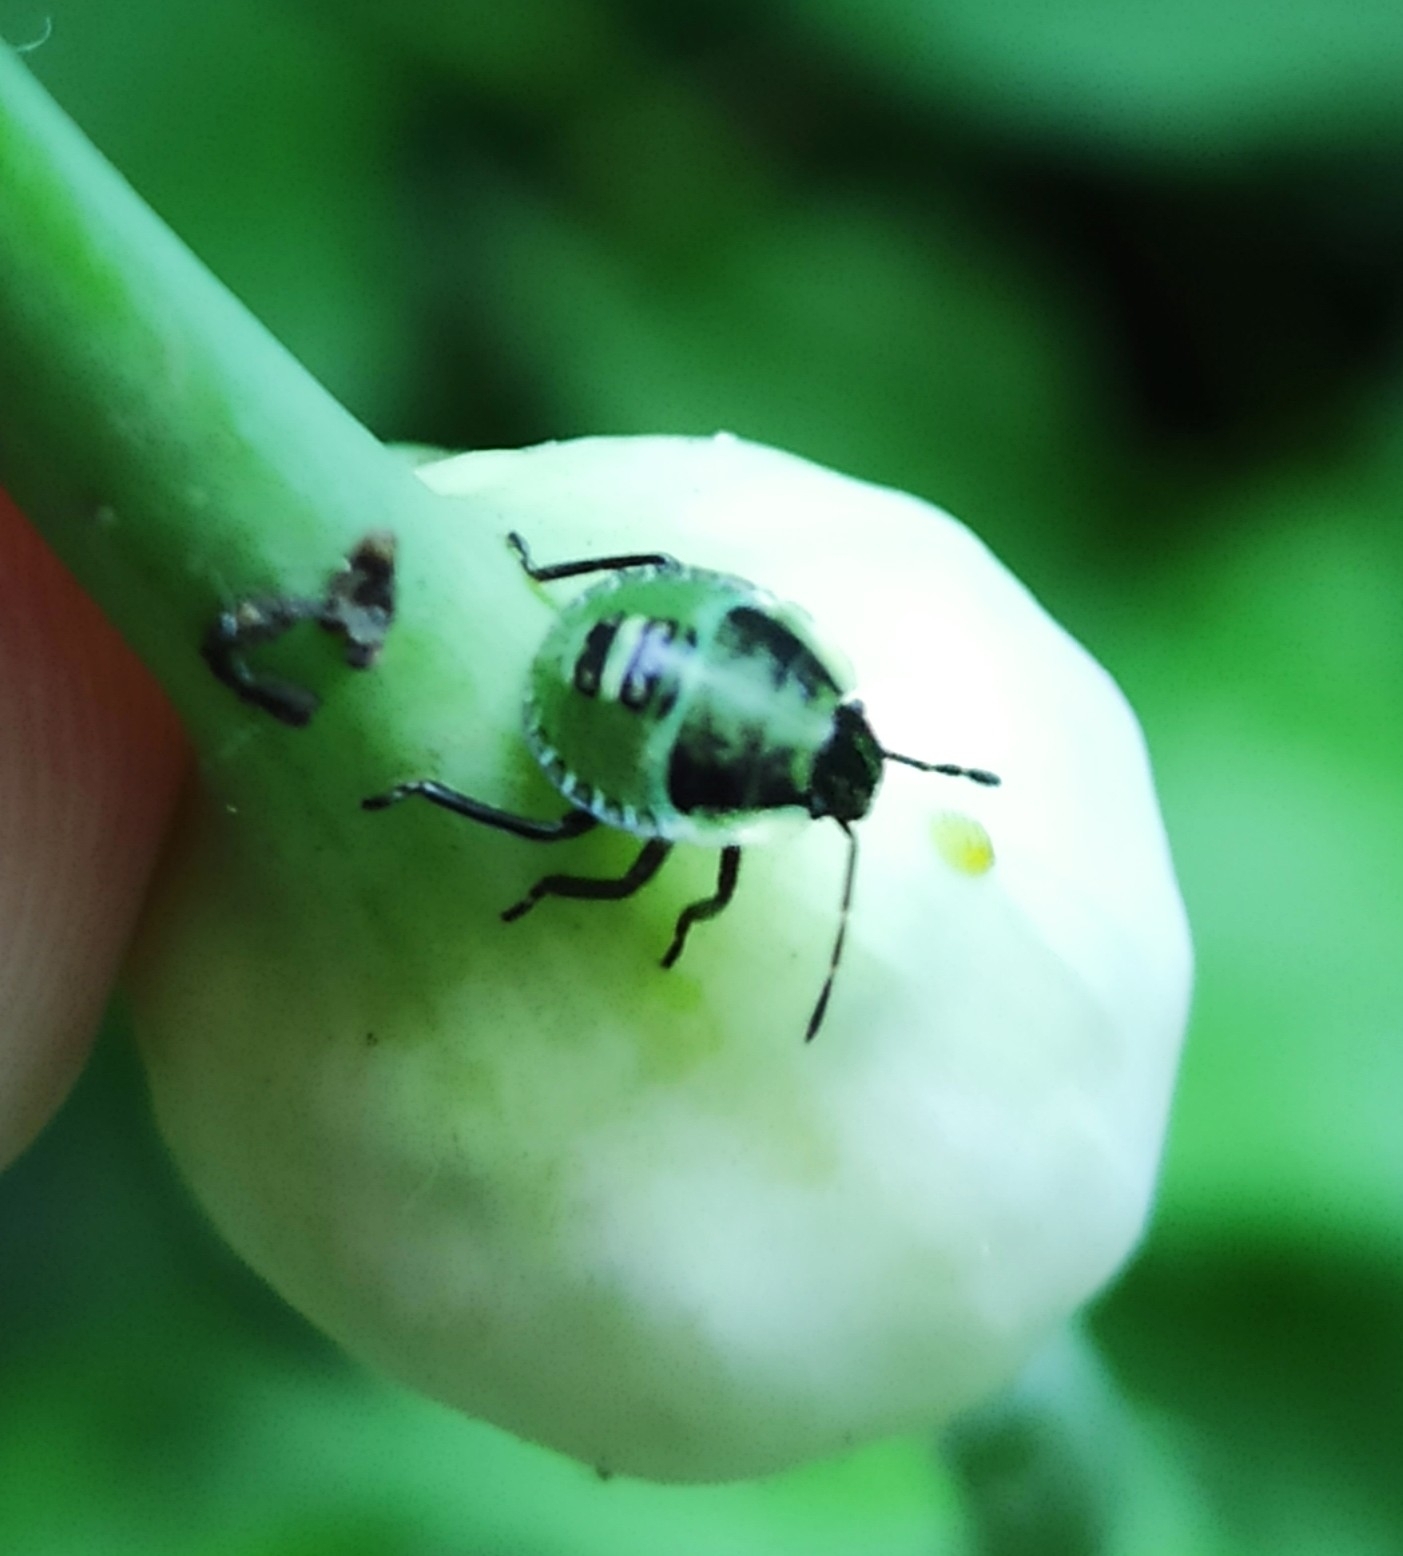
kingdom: Animalia
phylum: Arthropoda
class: Insecta
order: Hemiptera
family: Pentatomidae
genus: Palomena
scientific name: Palomena prasina
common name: Green shieldbug
